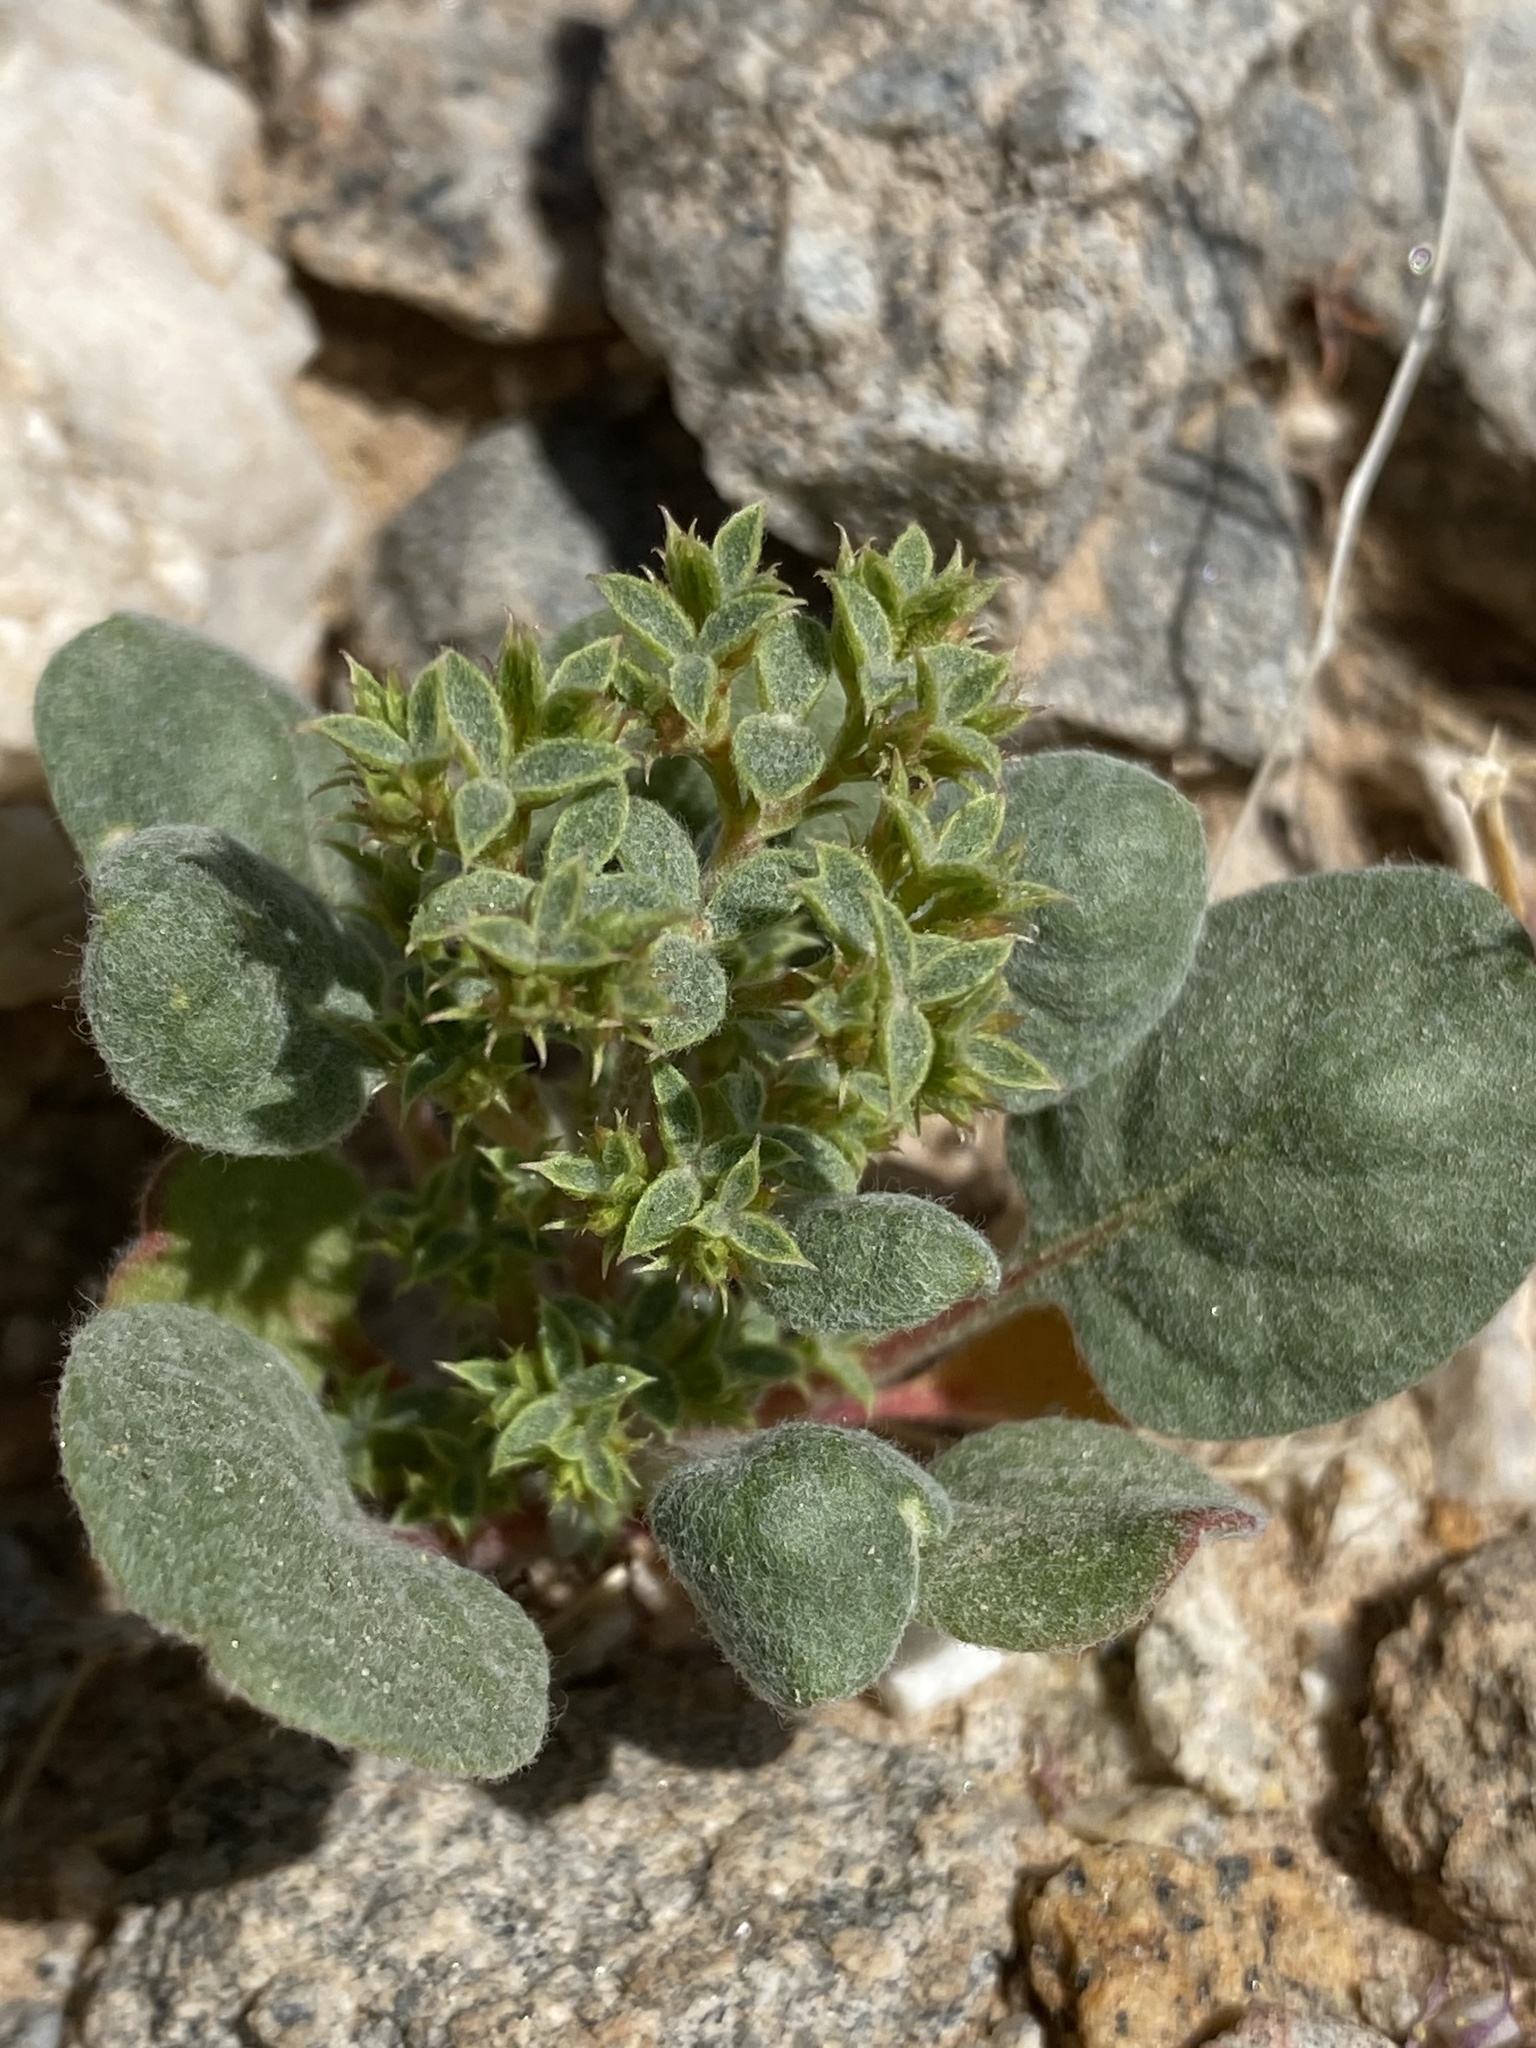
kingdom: Plantae
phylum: Tracheophyta
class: Magnoliopsida
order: Caryophyllales
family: Polygonaceae
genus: Chorizanthe
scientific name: Chorizanthe corrugata
